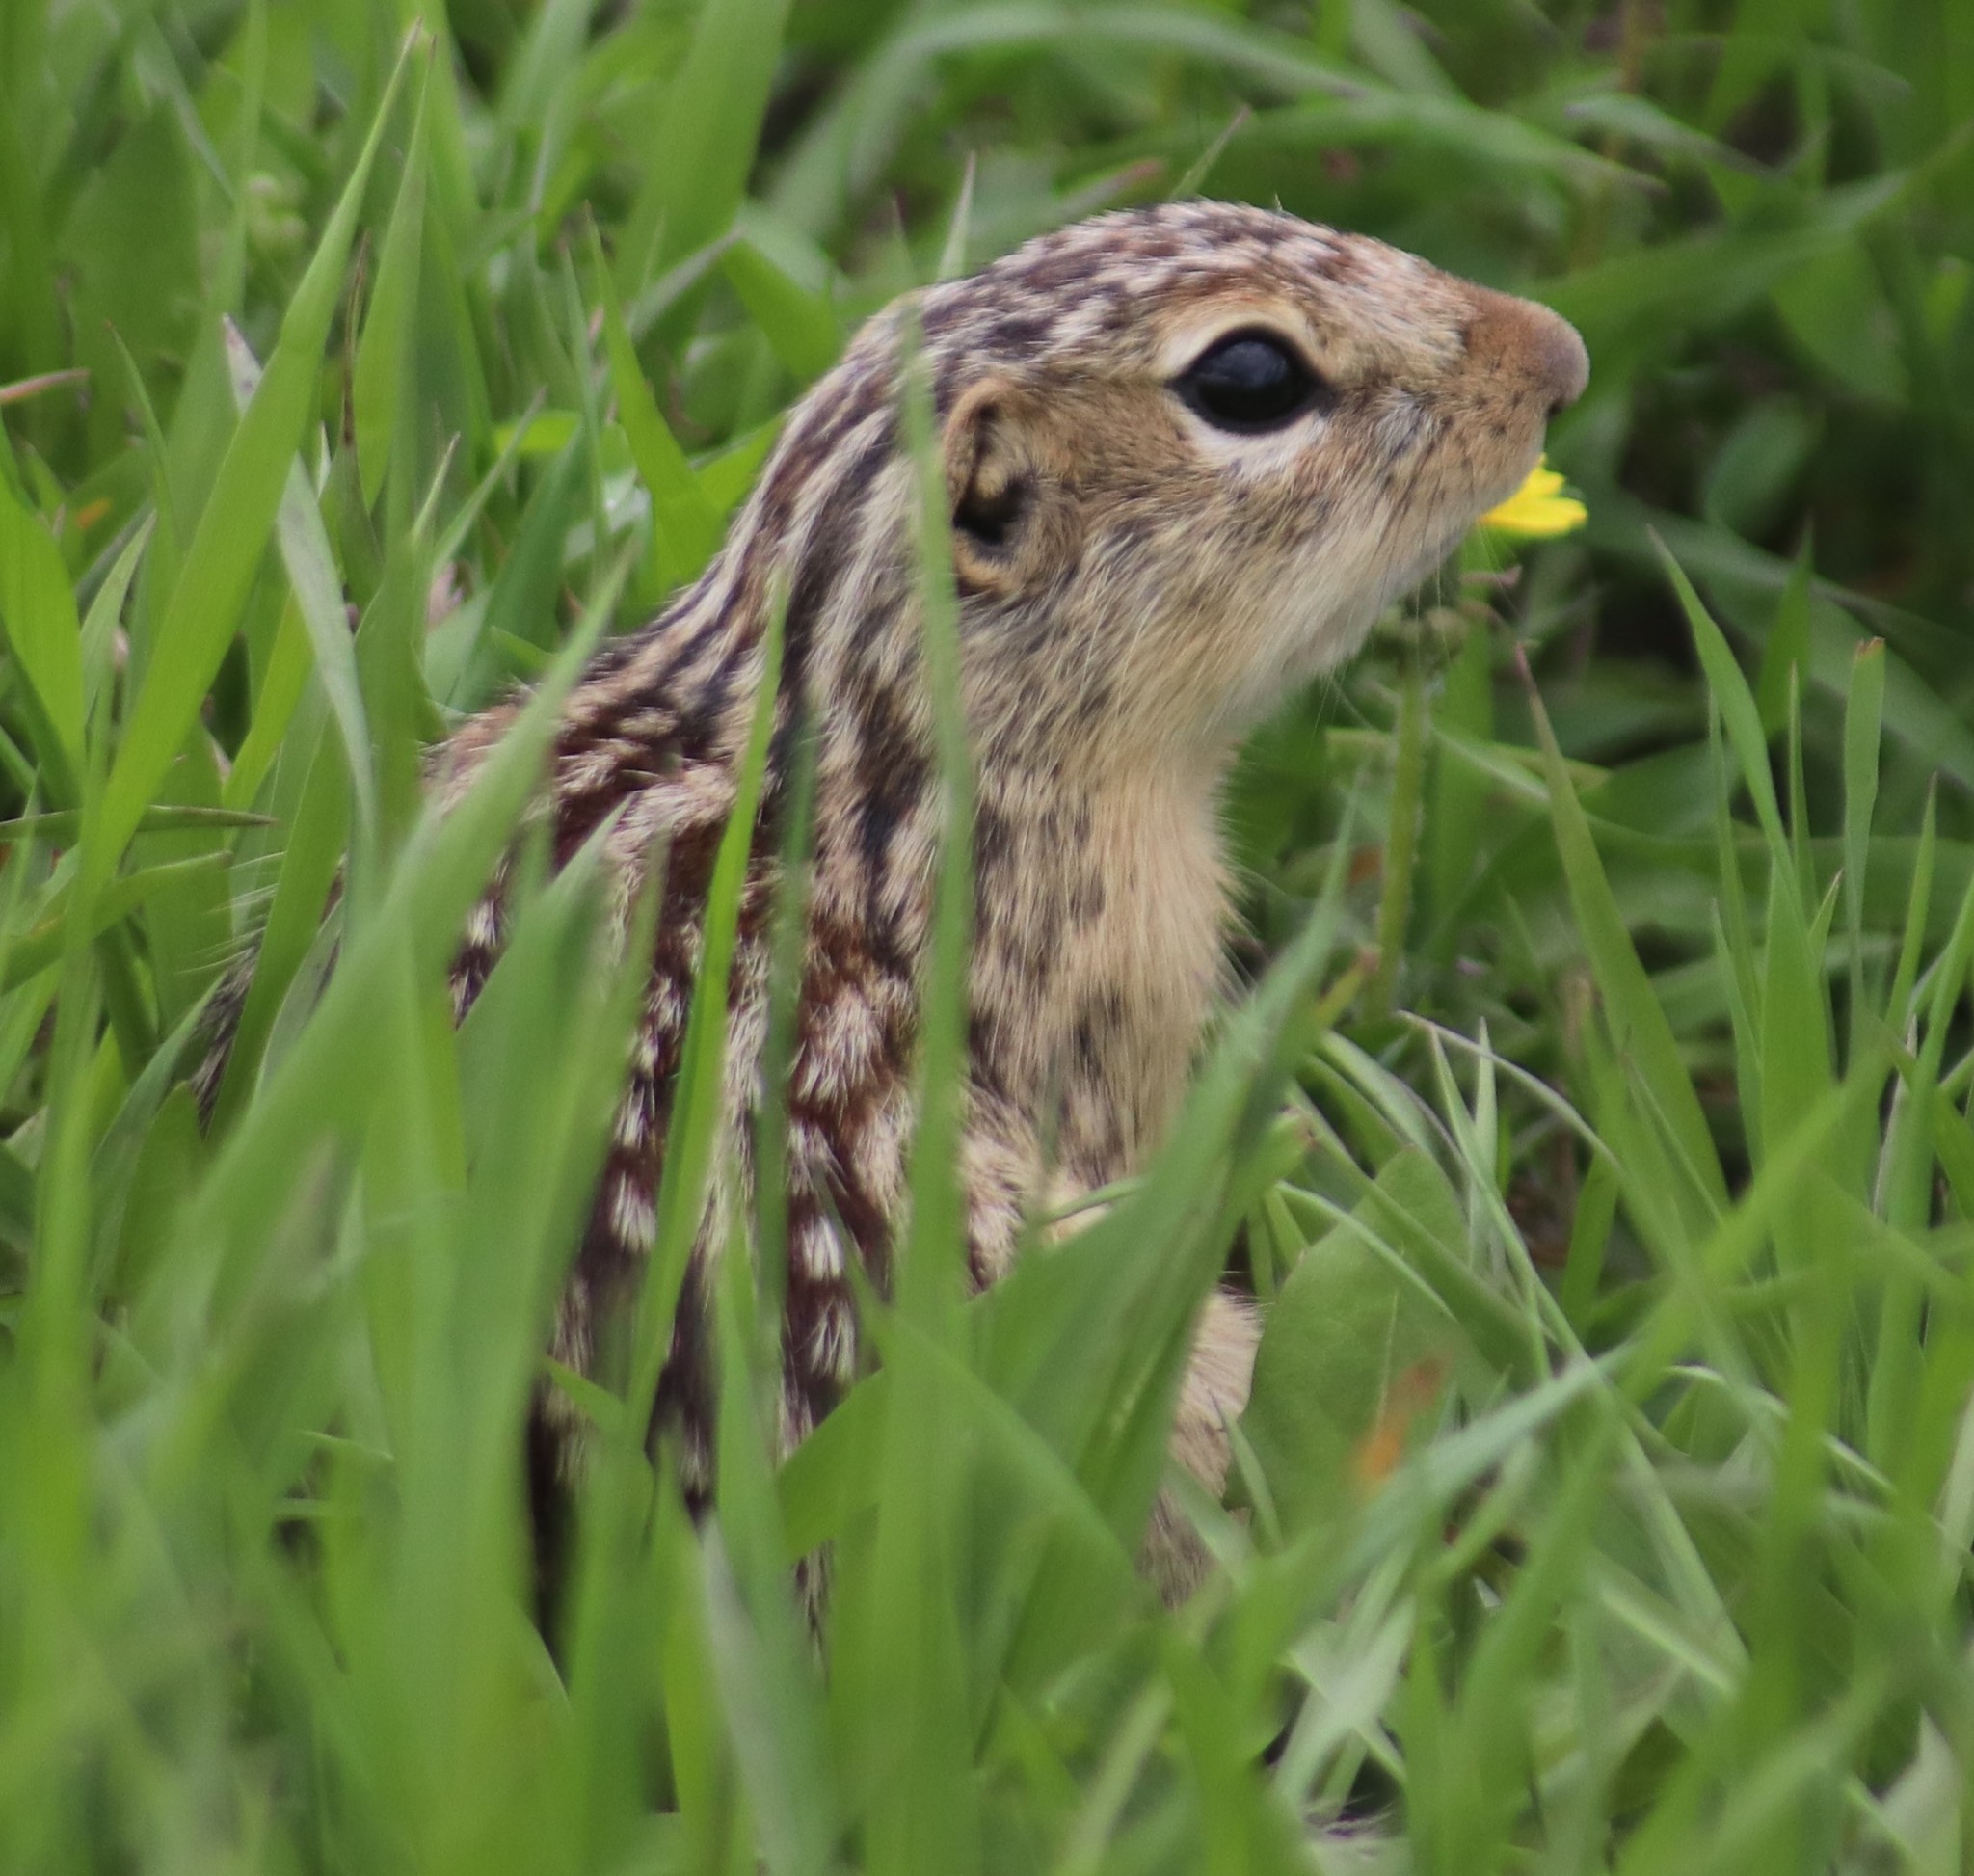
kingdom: Animalia
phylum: Chordata
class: Mammalia
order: Rodentia
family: Sciuridae
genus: Ictidomys
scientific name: Ictidomys tridecemlineatus
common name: Thirteen-lined ground squirrel
